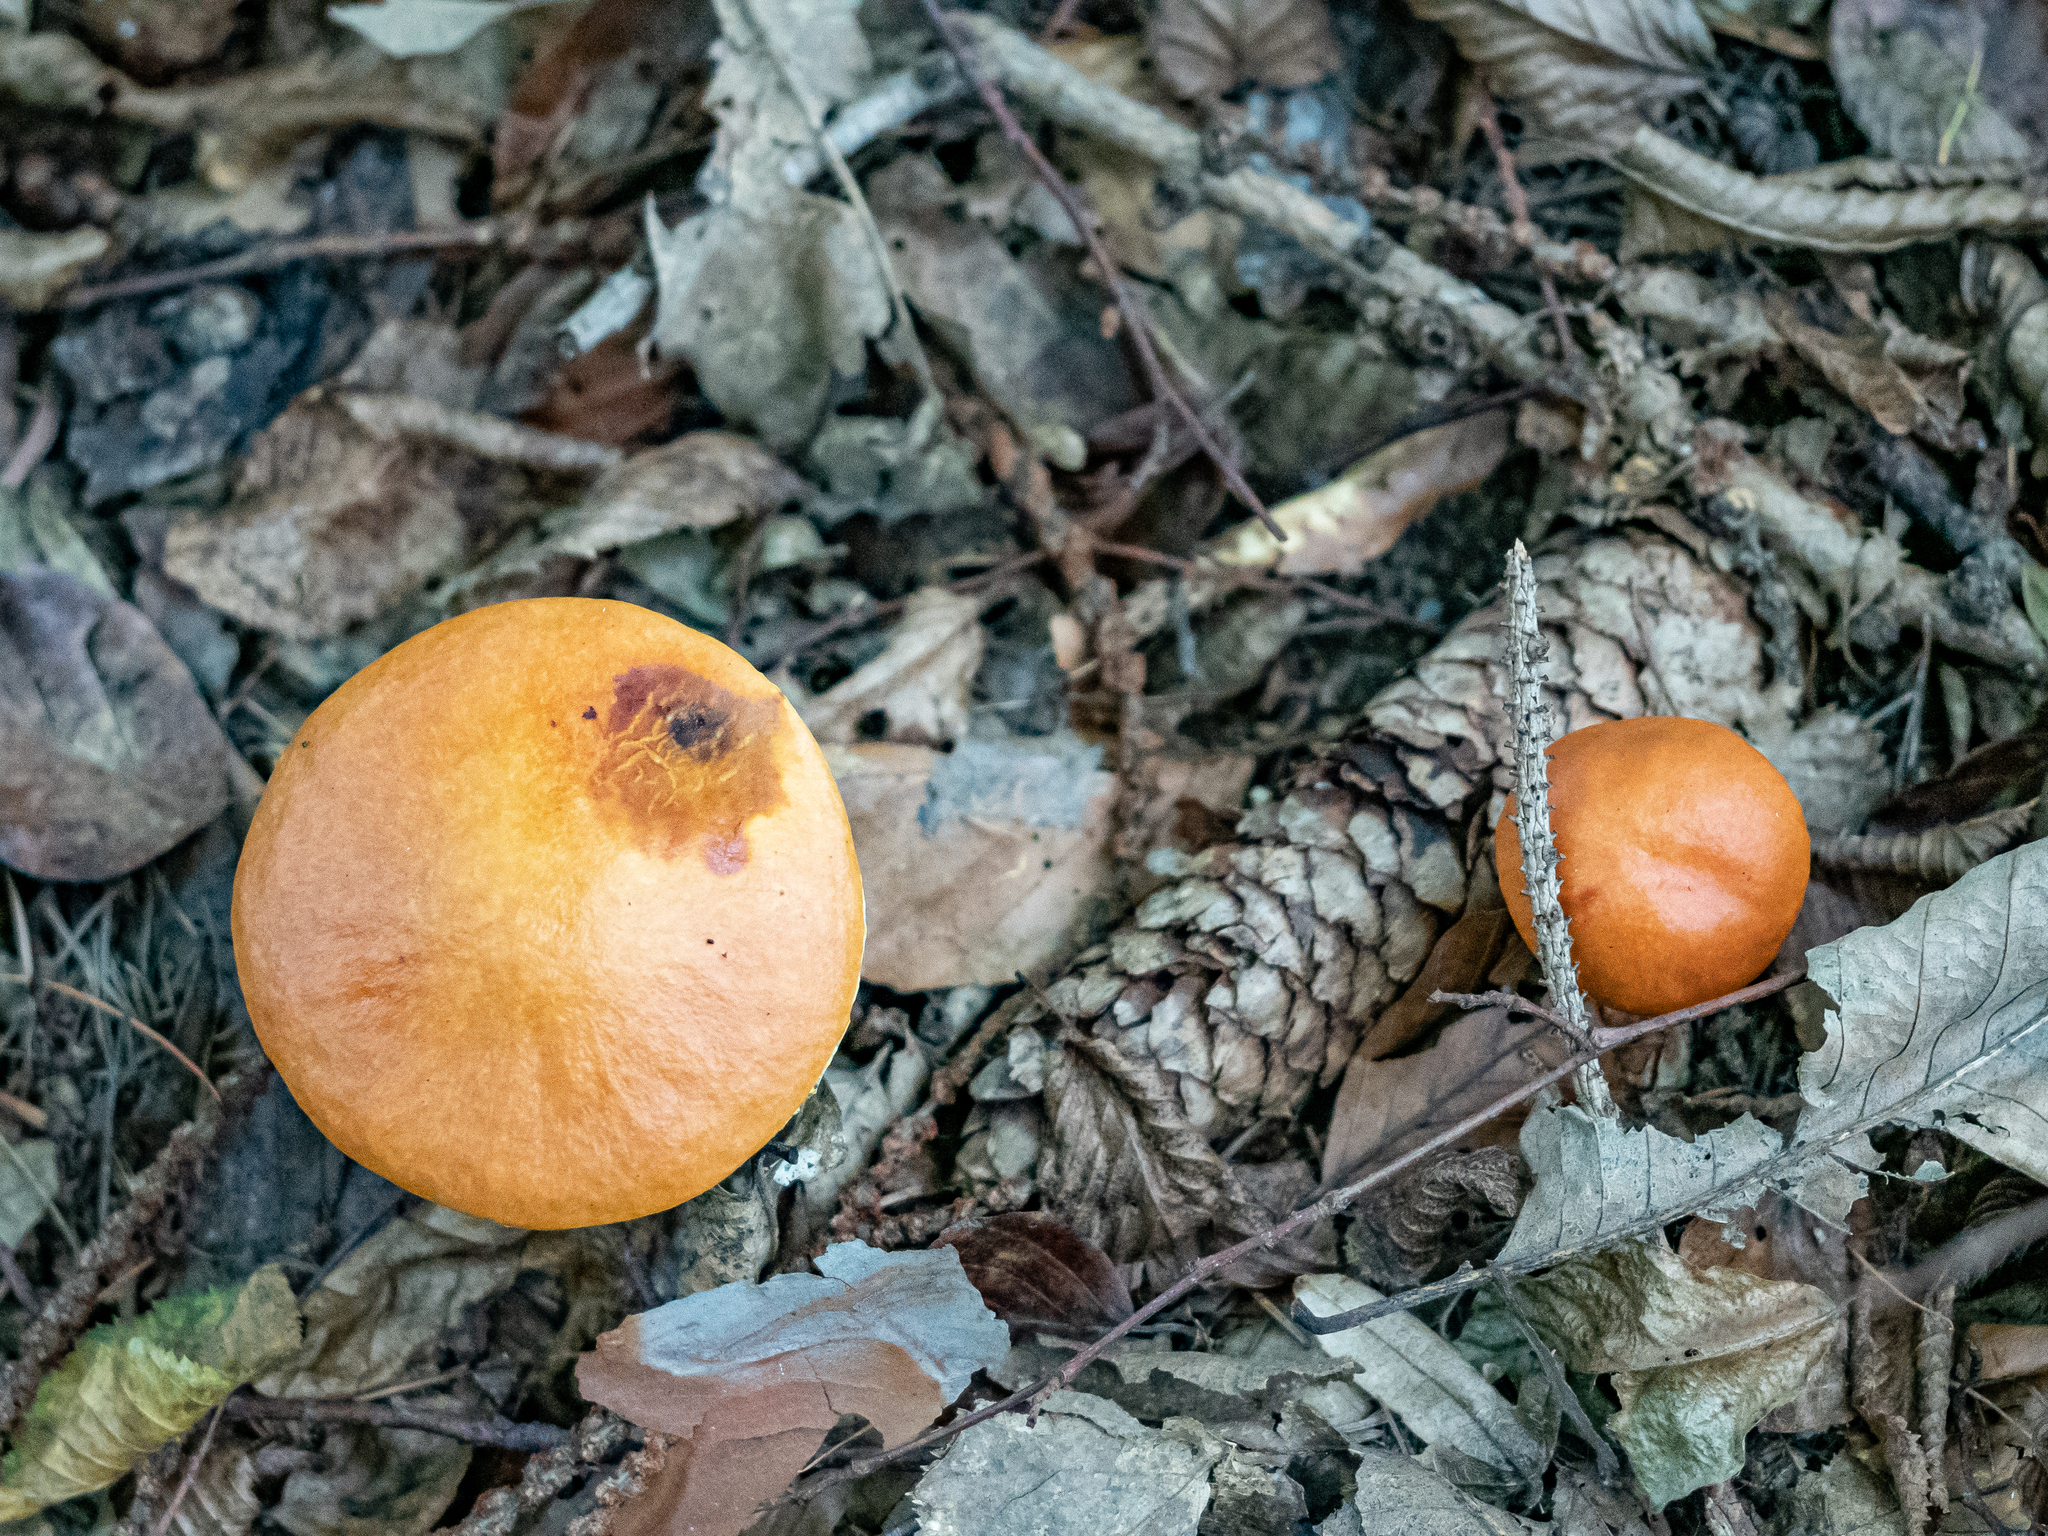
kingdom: Fungi
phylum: Basidiomycota
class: Agaricomycetes
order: Boletales
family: Suillaceae
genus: Suillus
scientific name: Suillus grevillei
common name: Larch bolete
